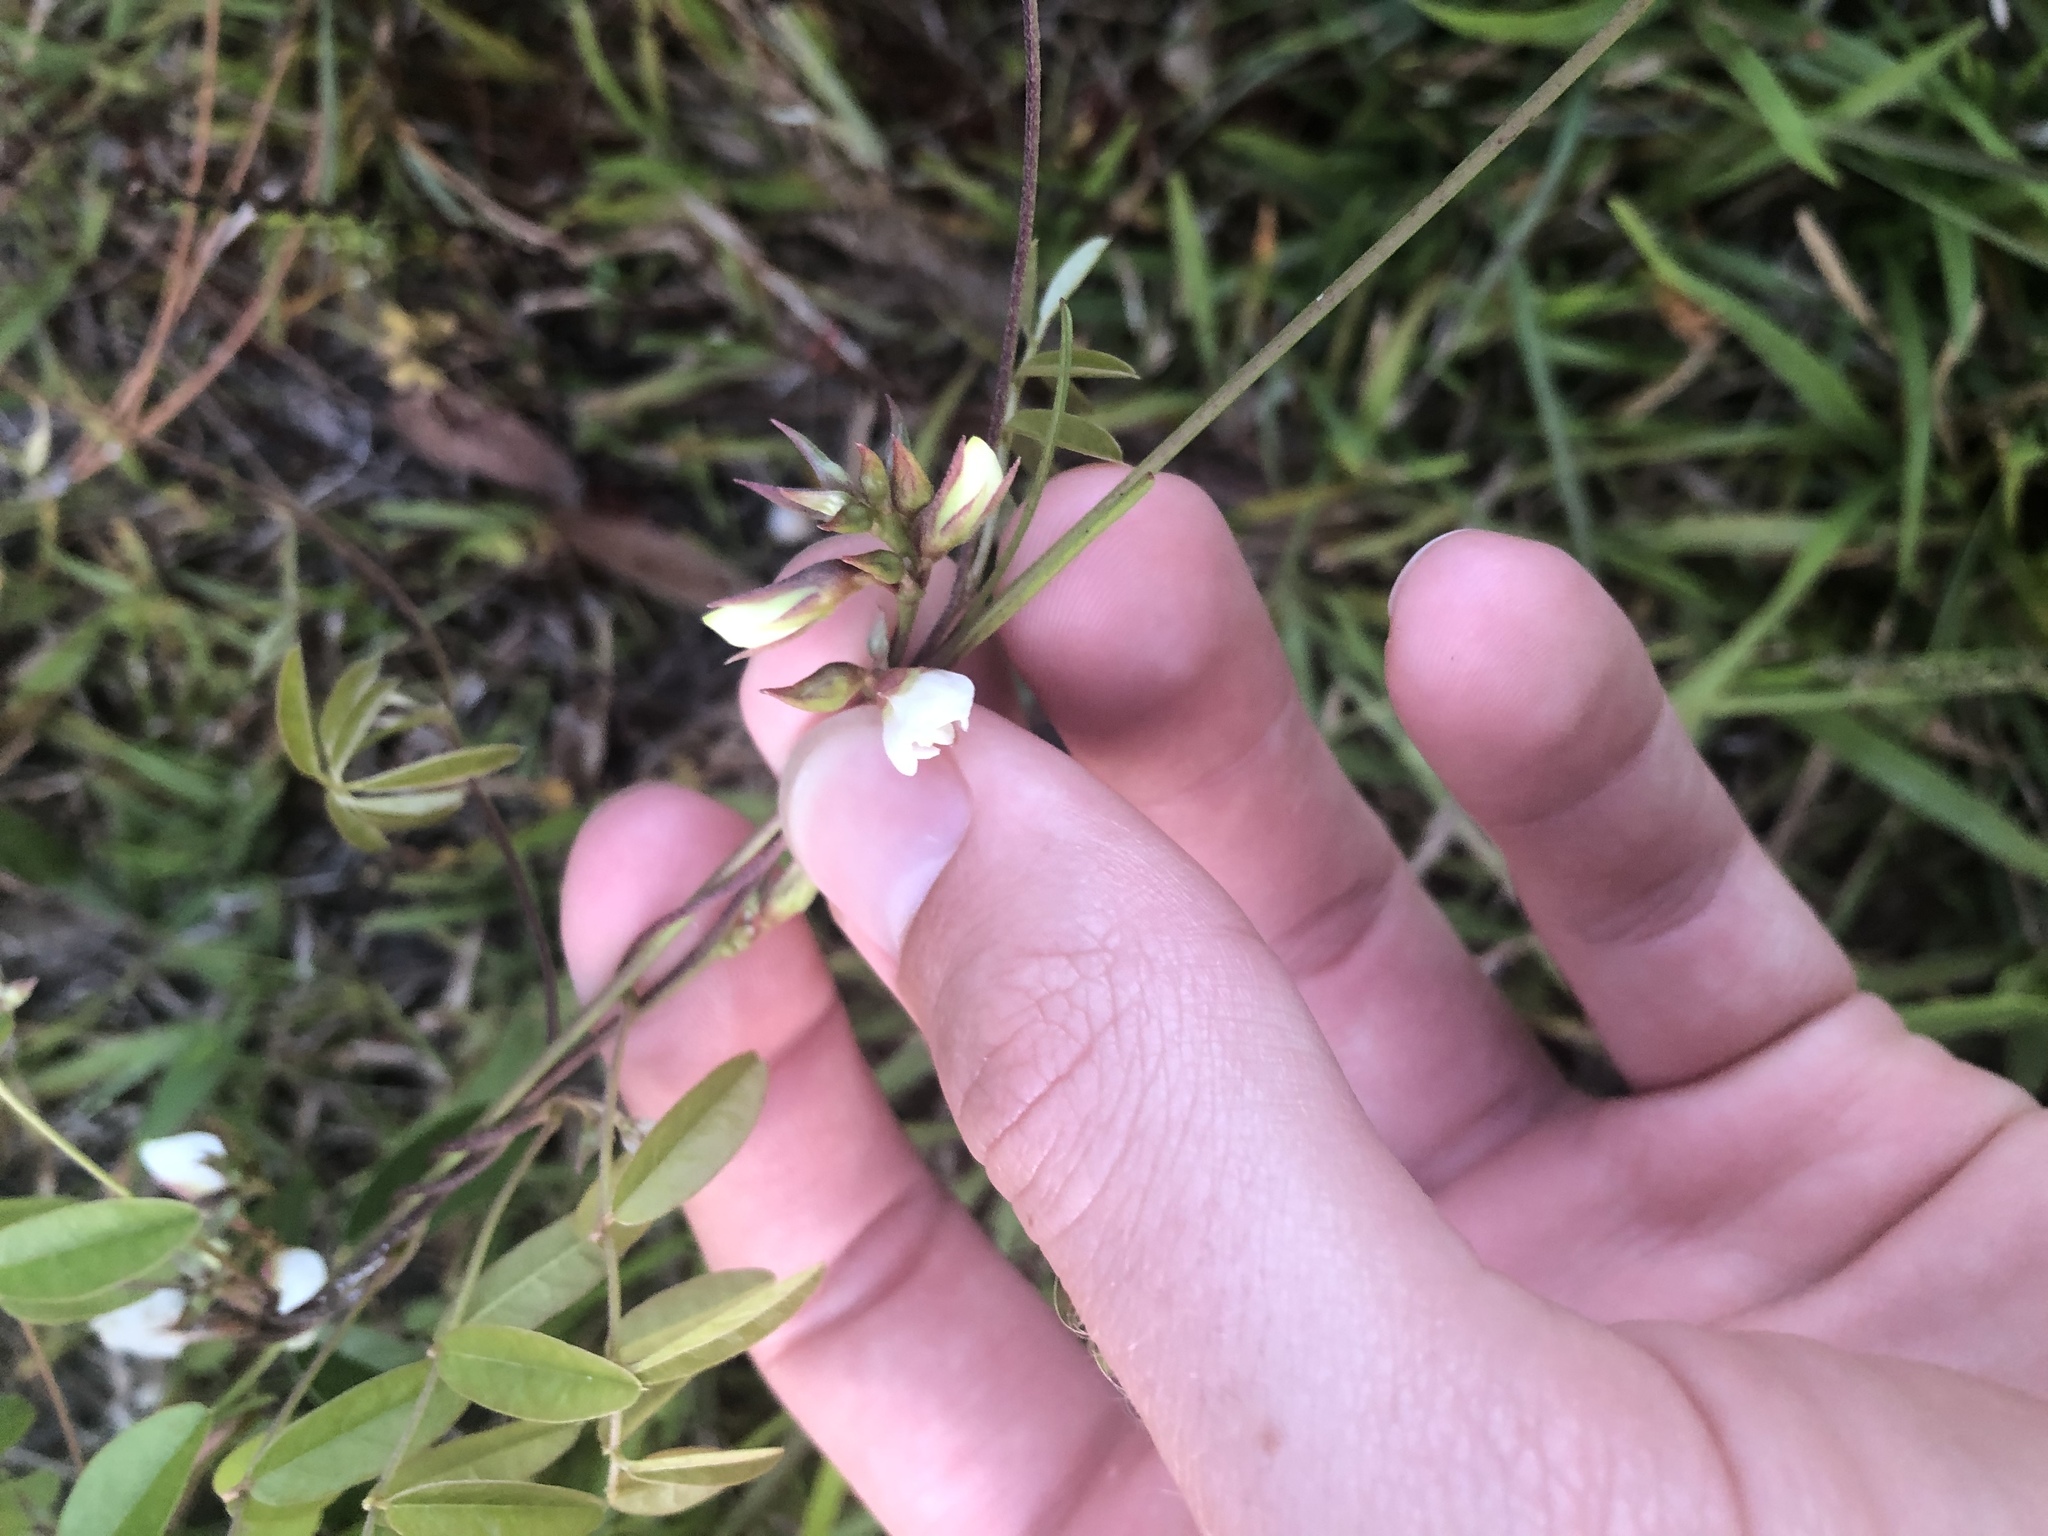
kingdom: Plantae
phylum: Tracheophyta
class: Magnoliopsida
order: Fabales
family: Fabaceae
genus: Galactia
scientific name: Galactia elliottii
